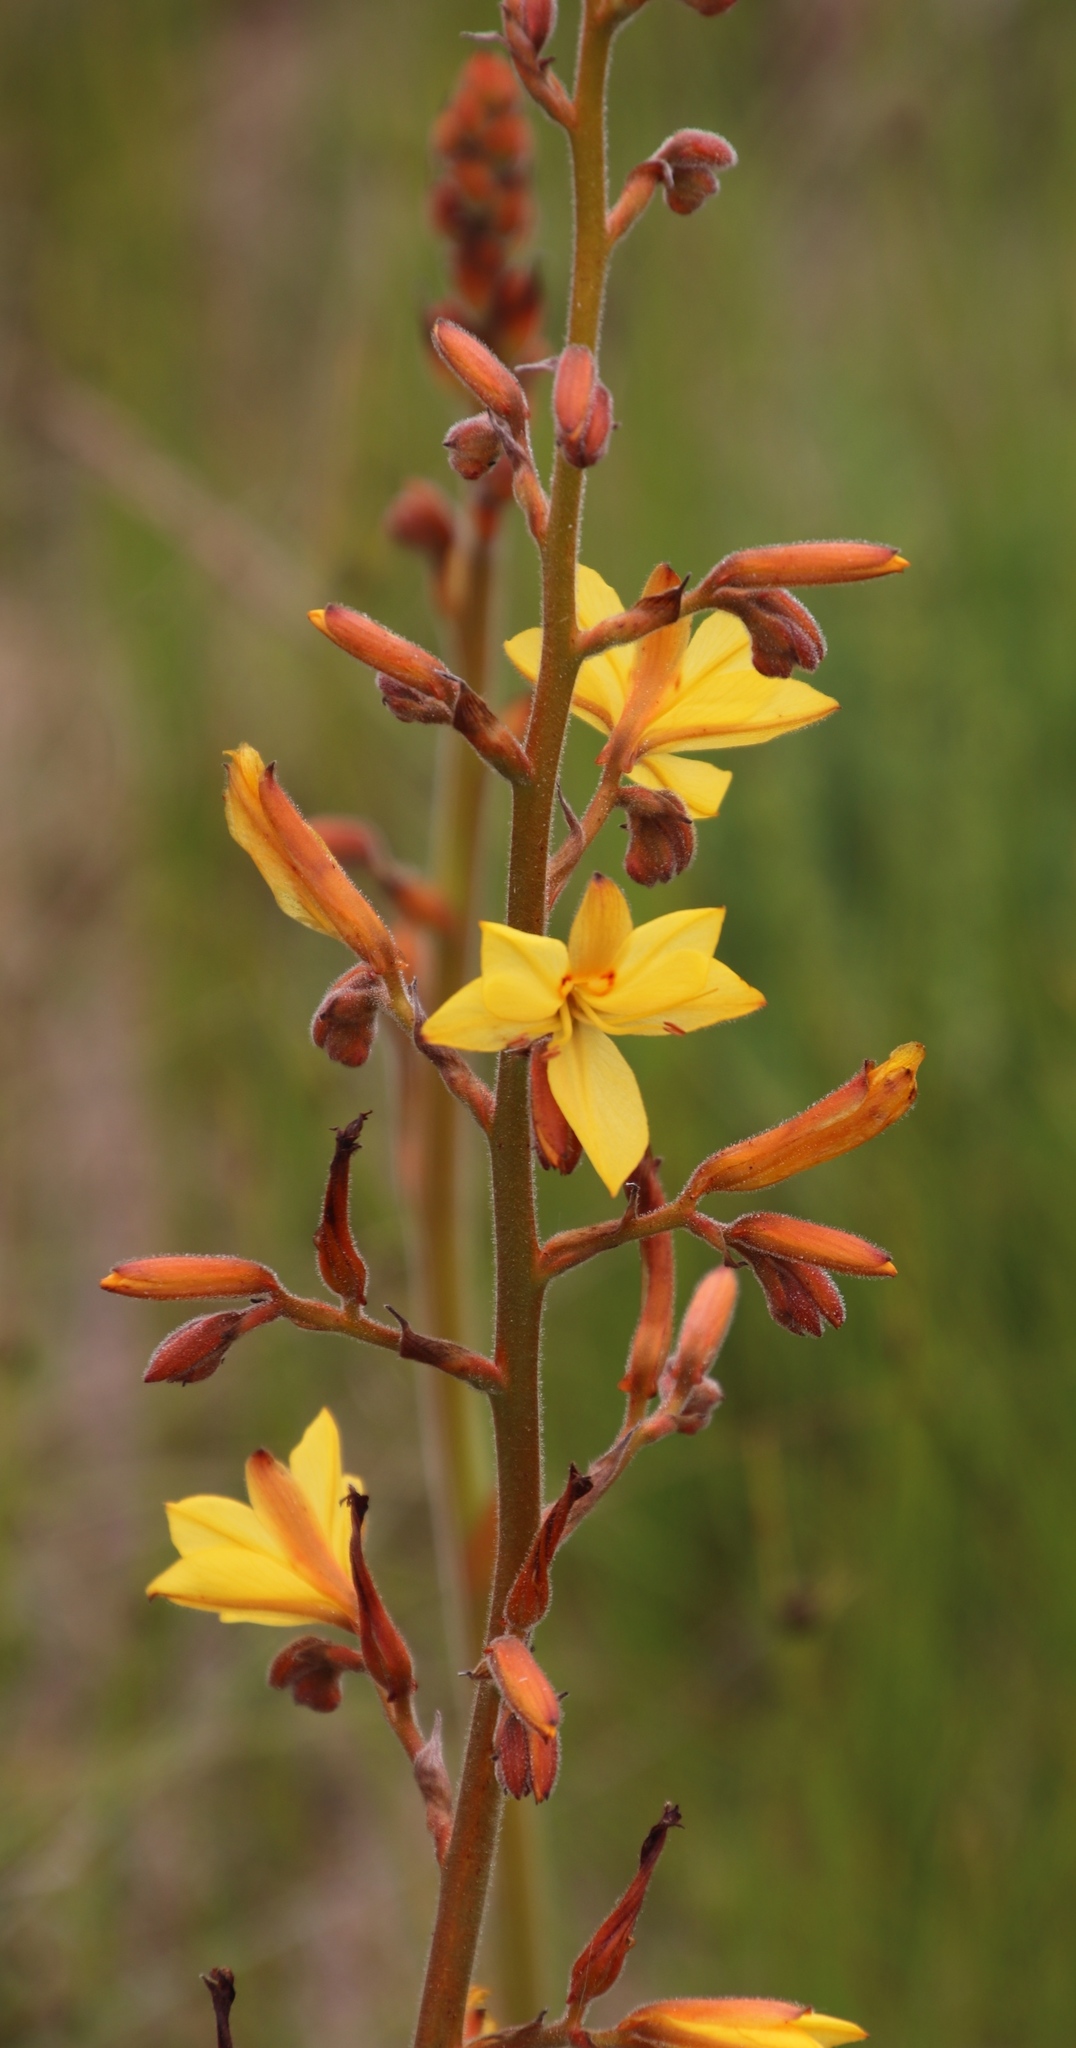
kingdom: Plantae
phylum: Tracheophyta
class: Liliopsida
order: Commelinales
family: Haemodoraceae
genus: Wachendorfia
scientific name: Wachendorfia paniculata
